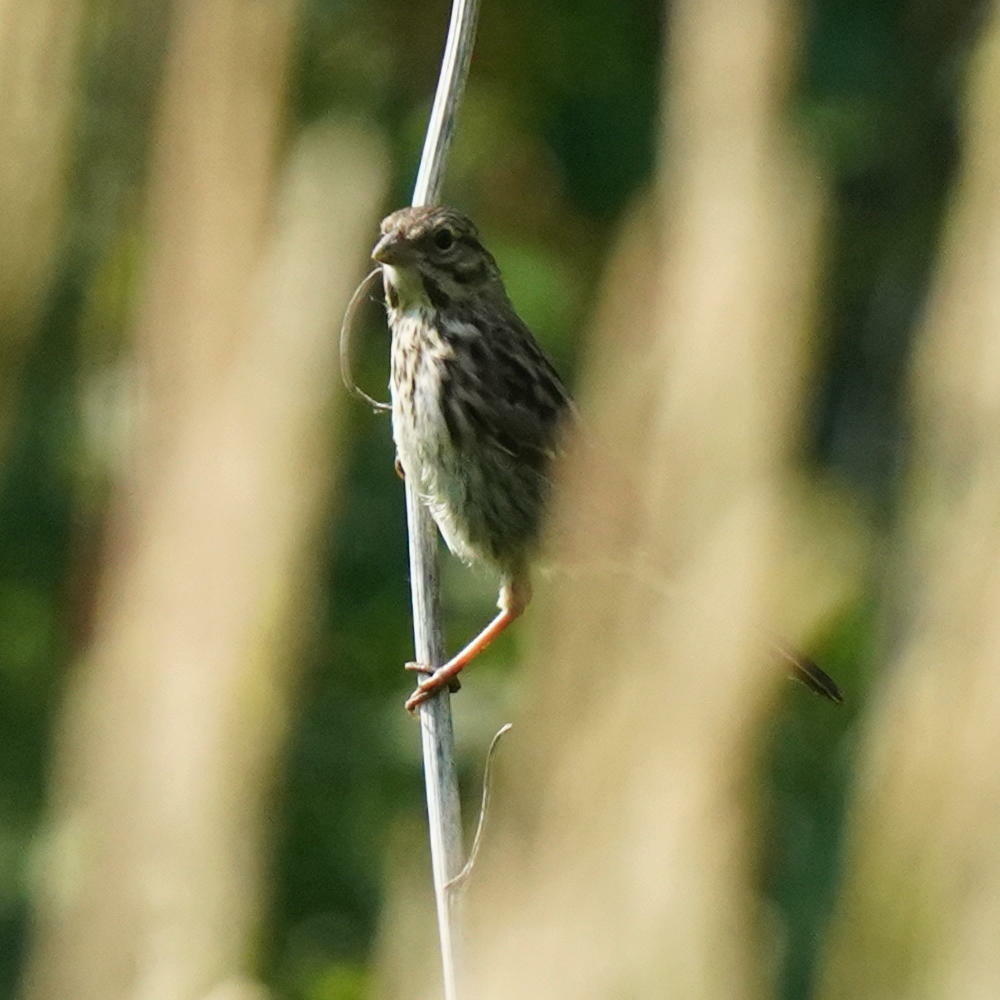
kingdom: Animalia
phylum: Chordata
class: Aves
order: Passeriformes
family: Passerellidae
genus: Melospiza
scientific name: Melospiza melodia
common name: Song sparrow
